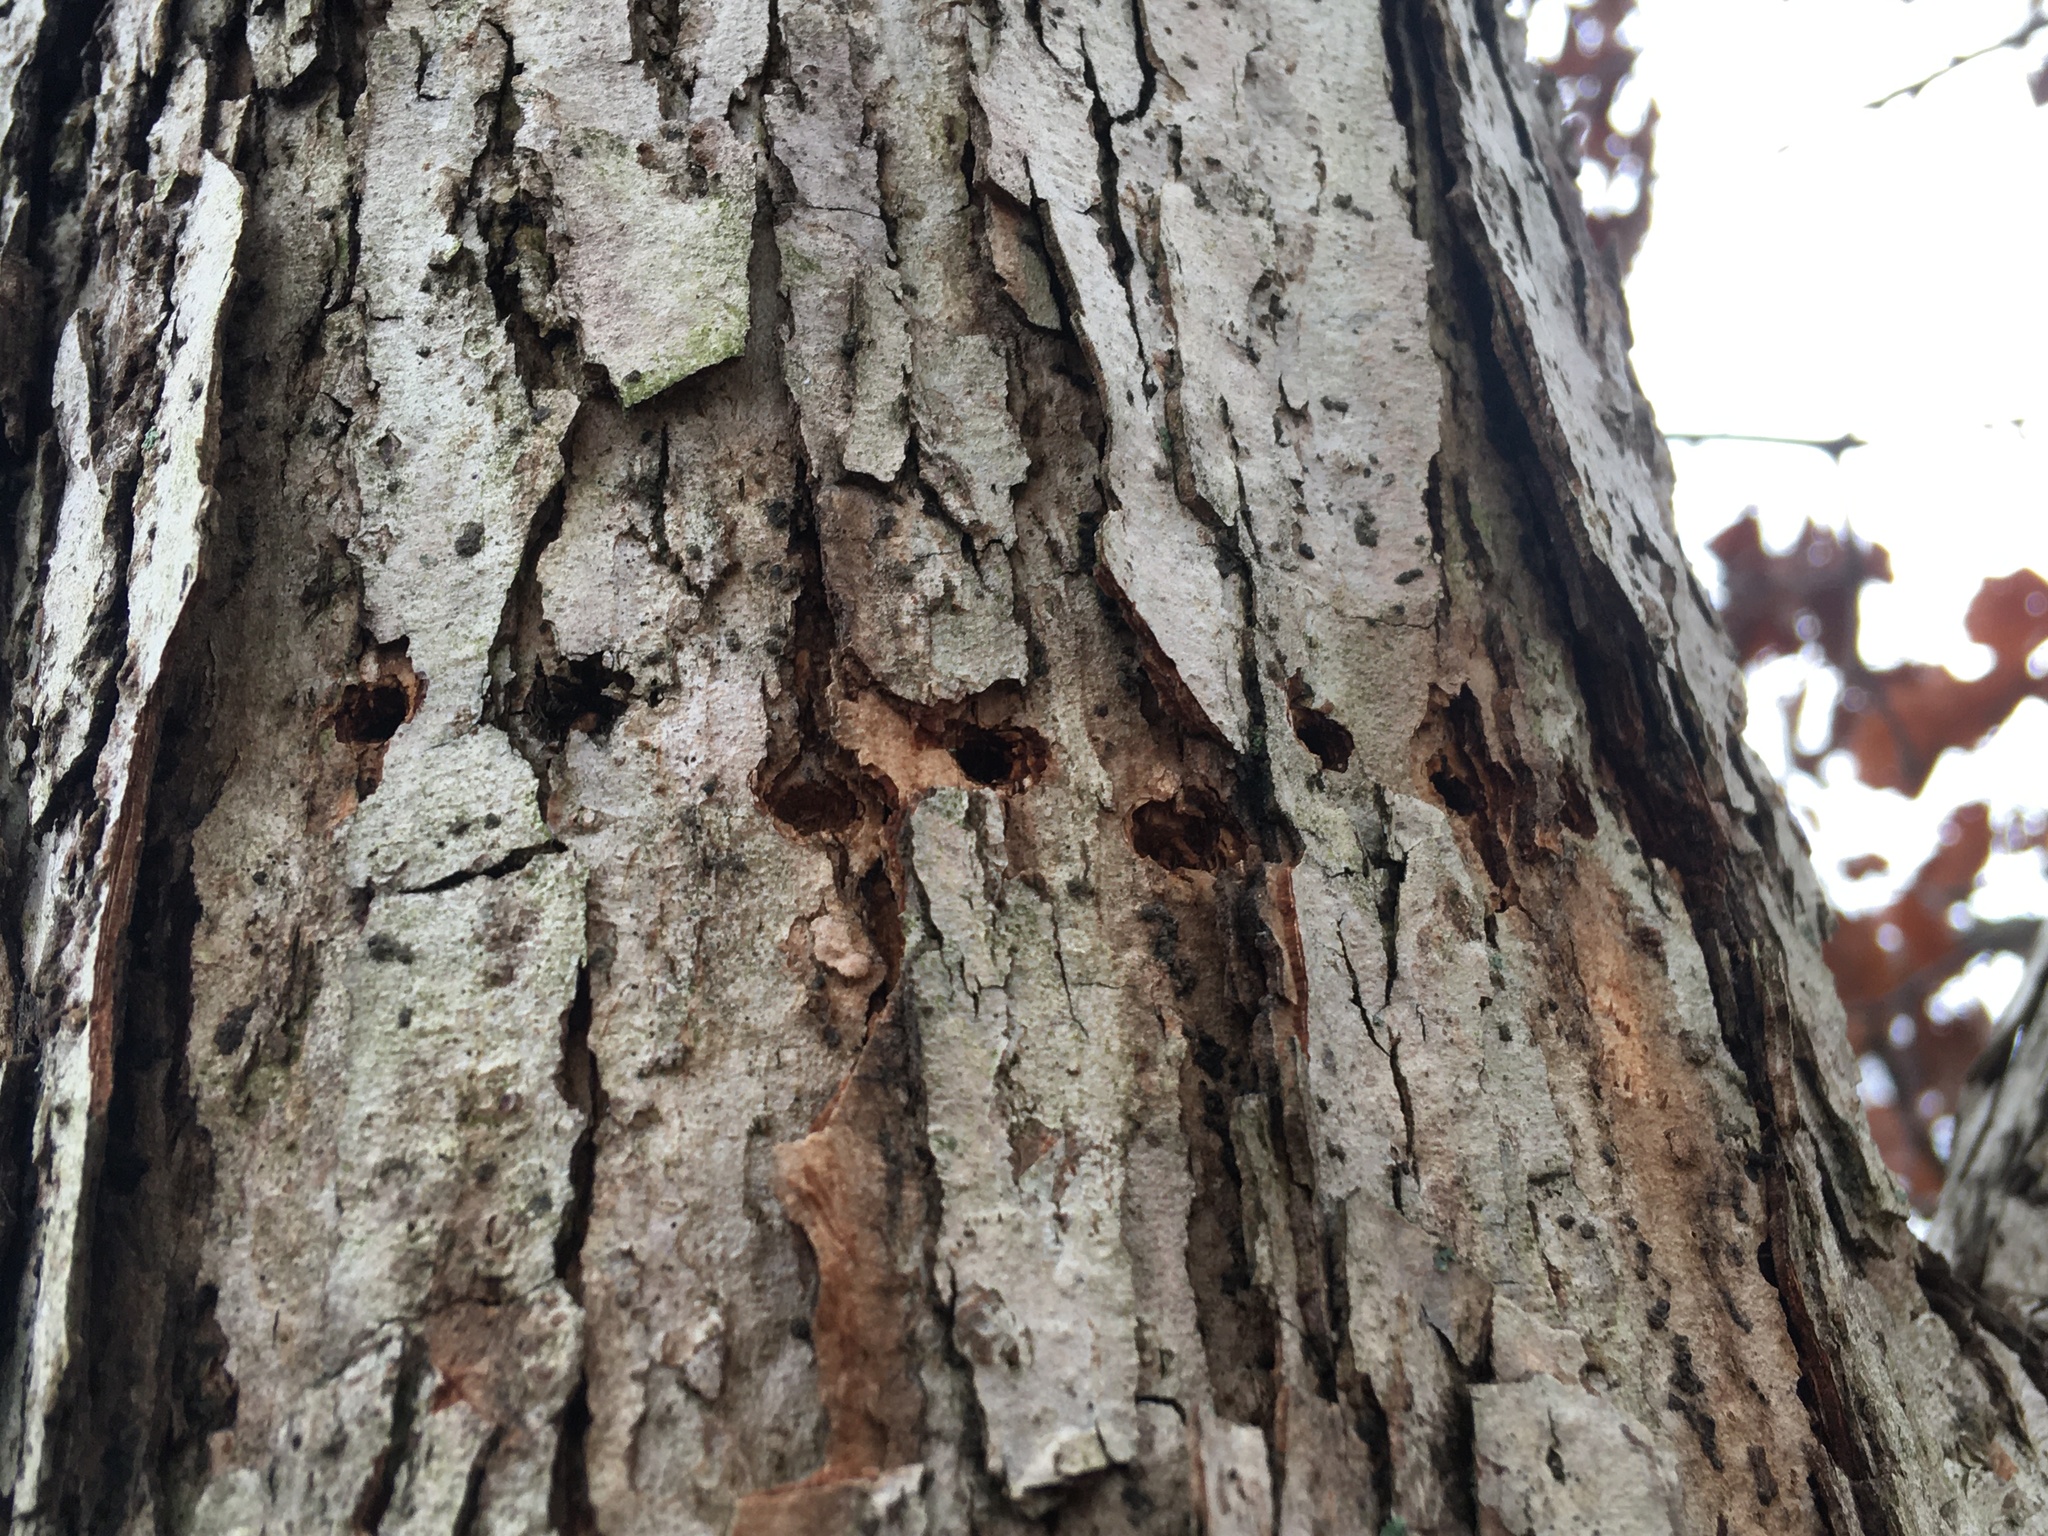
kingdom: Animalia
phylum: Chordata
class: Aves
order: Piciformes
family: Picidae
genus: Sphyrapicus
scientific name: Sphyrapicus varius
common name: Yellow-bellied sapsucker
